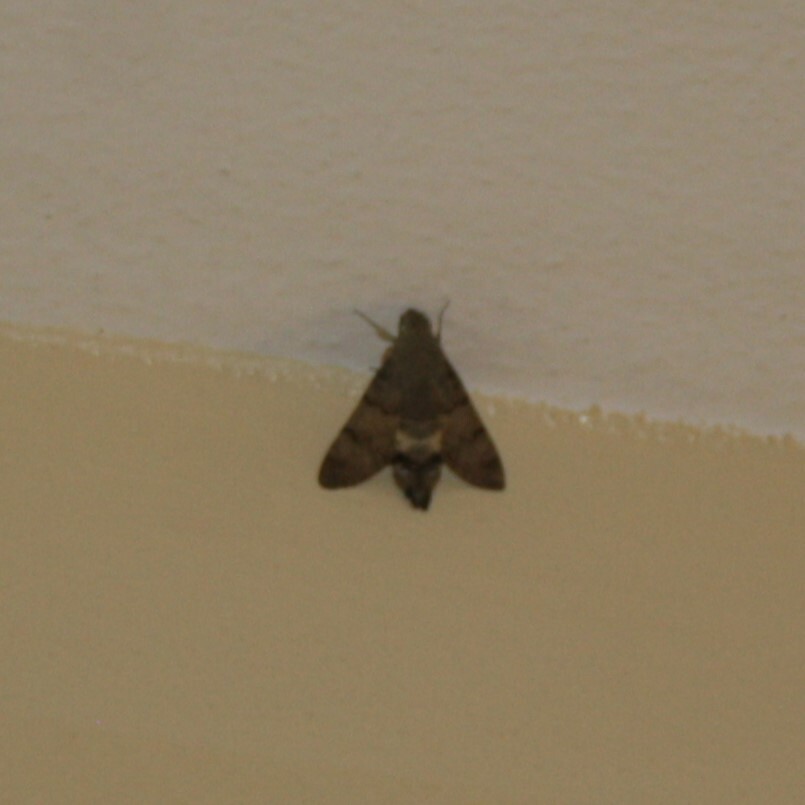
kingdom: Animalia
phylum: Arthropoda
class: Insecta
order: Lepidoptera
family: Sphingidae
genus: Macroglossum
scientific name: Macroglossum stellatarum
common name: Humming-bird hawk-moth
